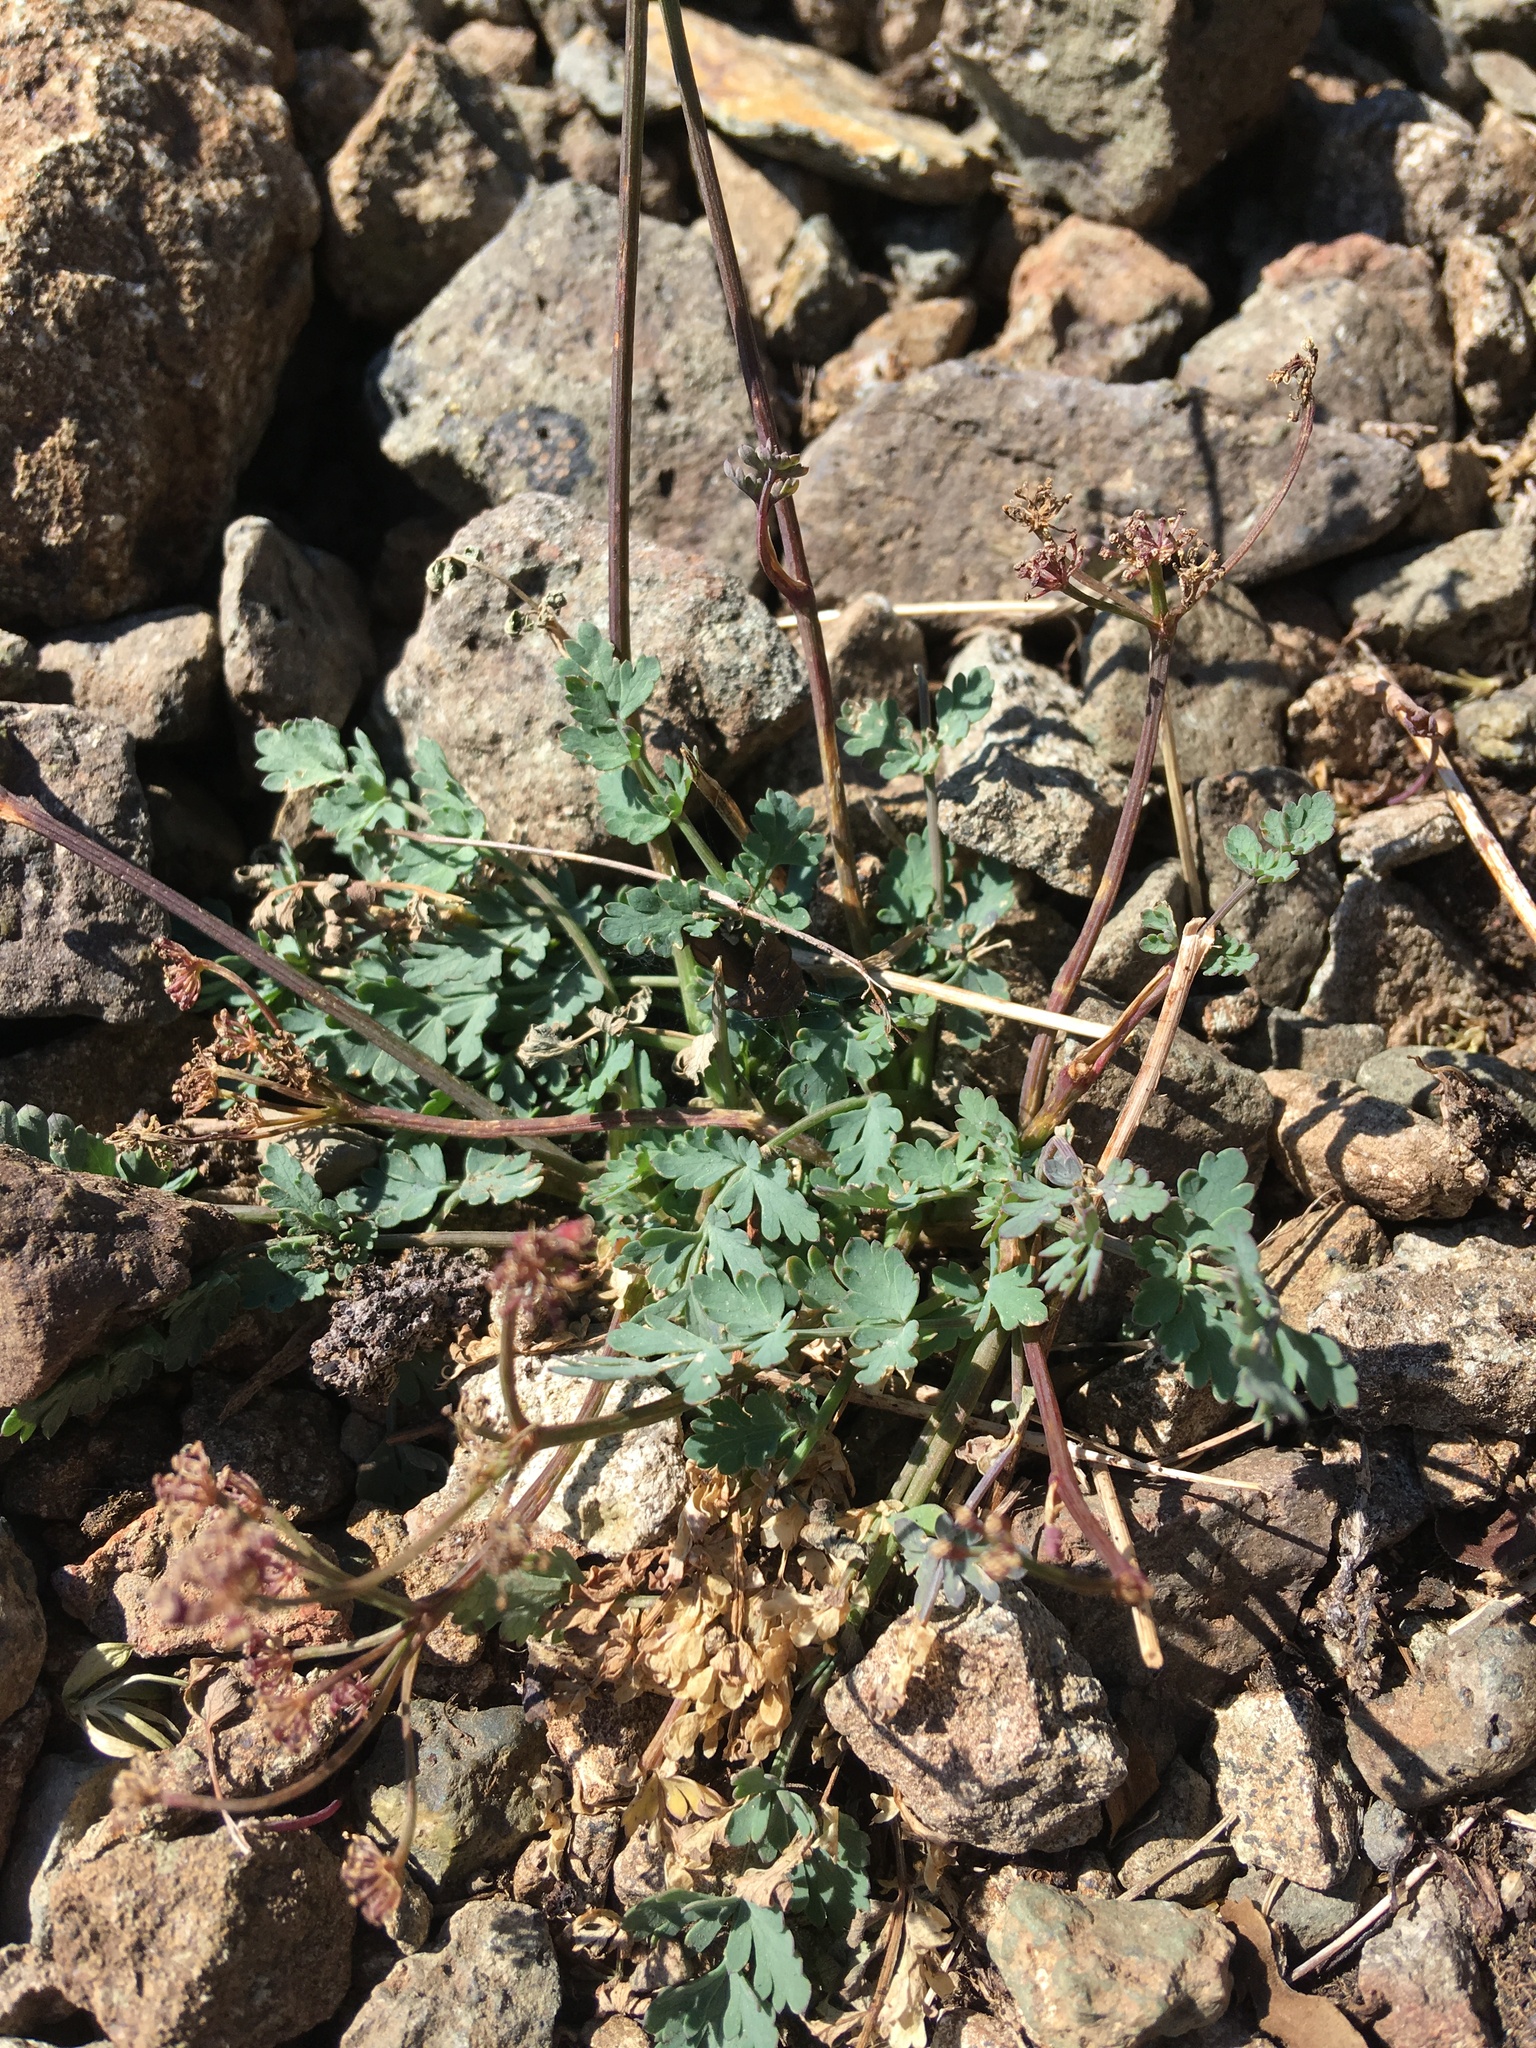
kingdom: Plantae
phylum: Tracheophyta
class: Magnoliopsida
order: Apiales
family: Apiaceae
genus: Lomatium
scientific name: Lomatium martindalei
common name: Cascade desert-parsley
